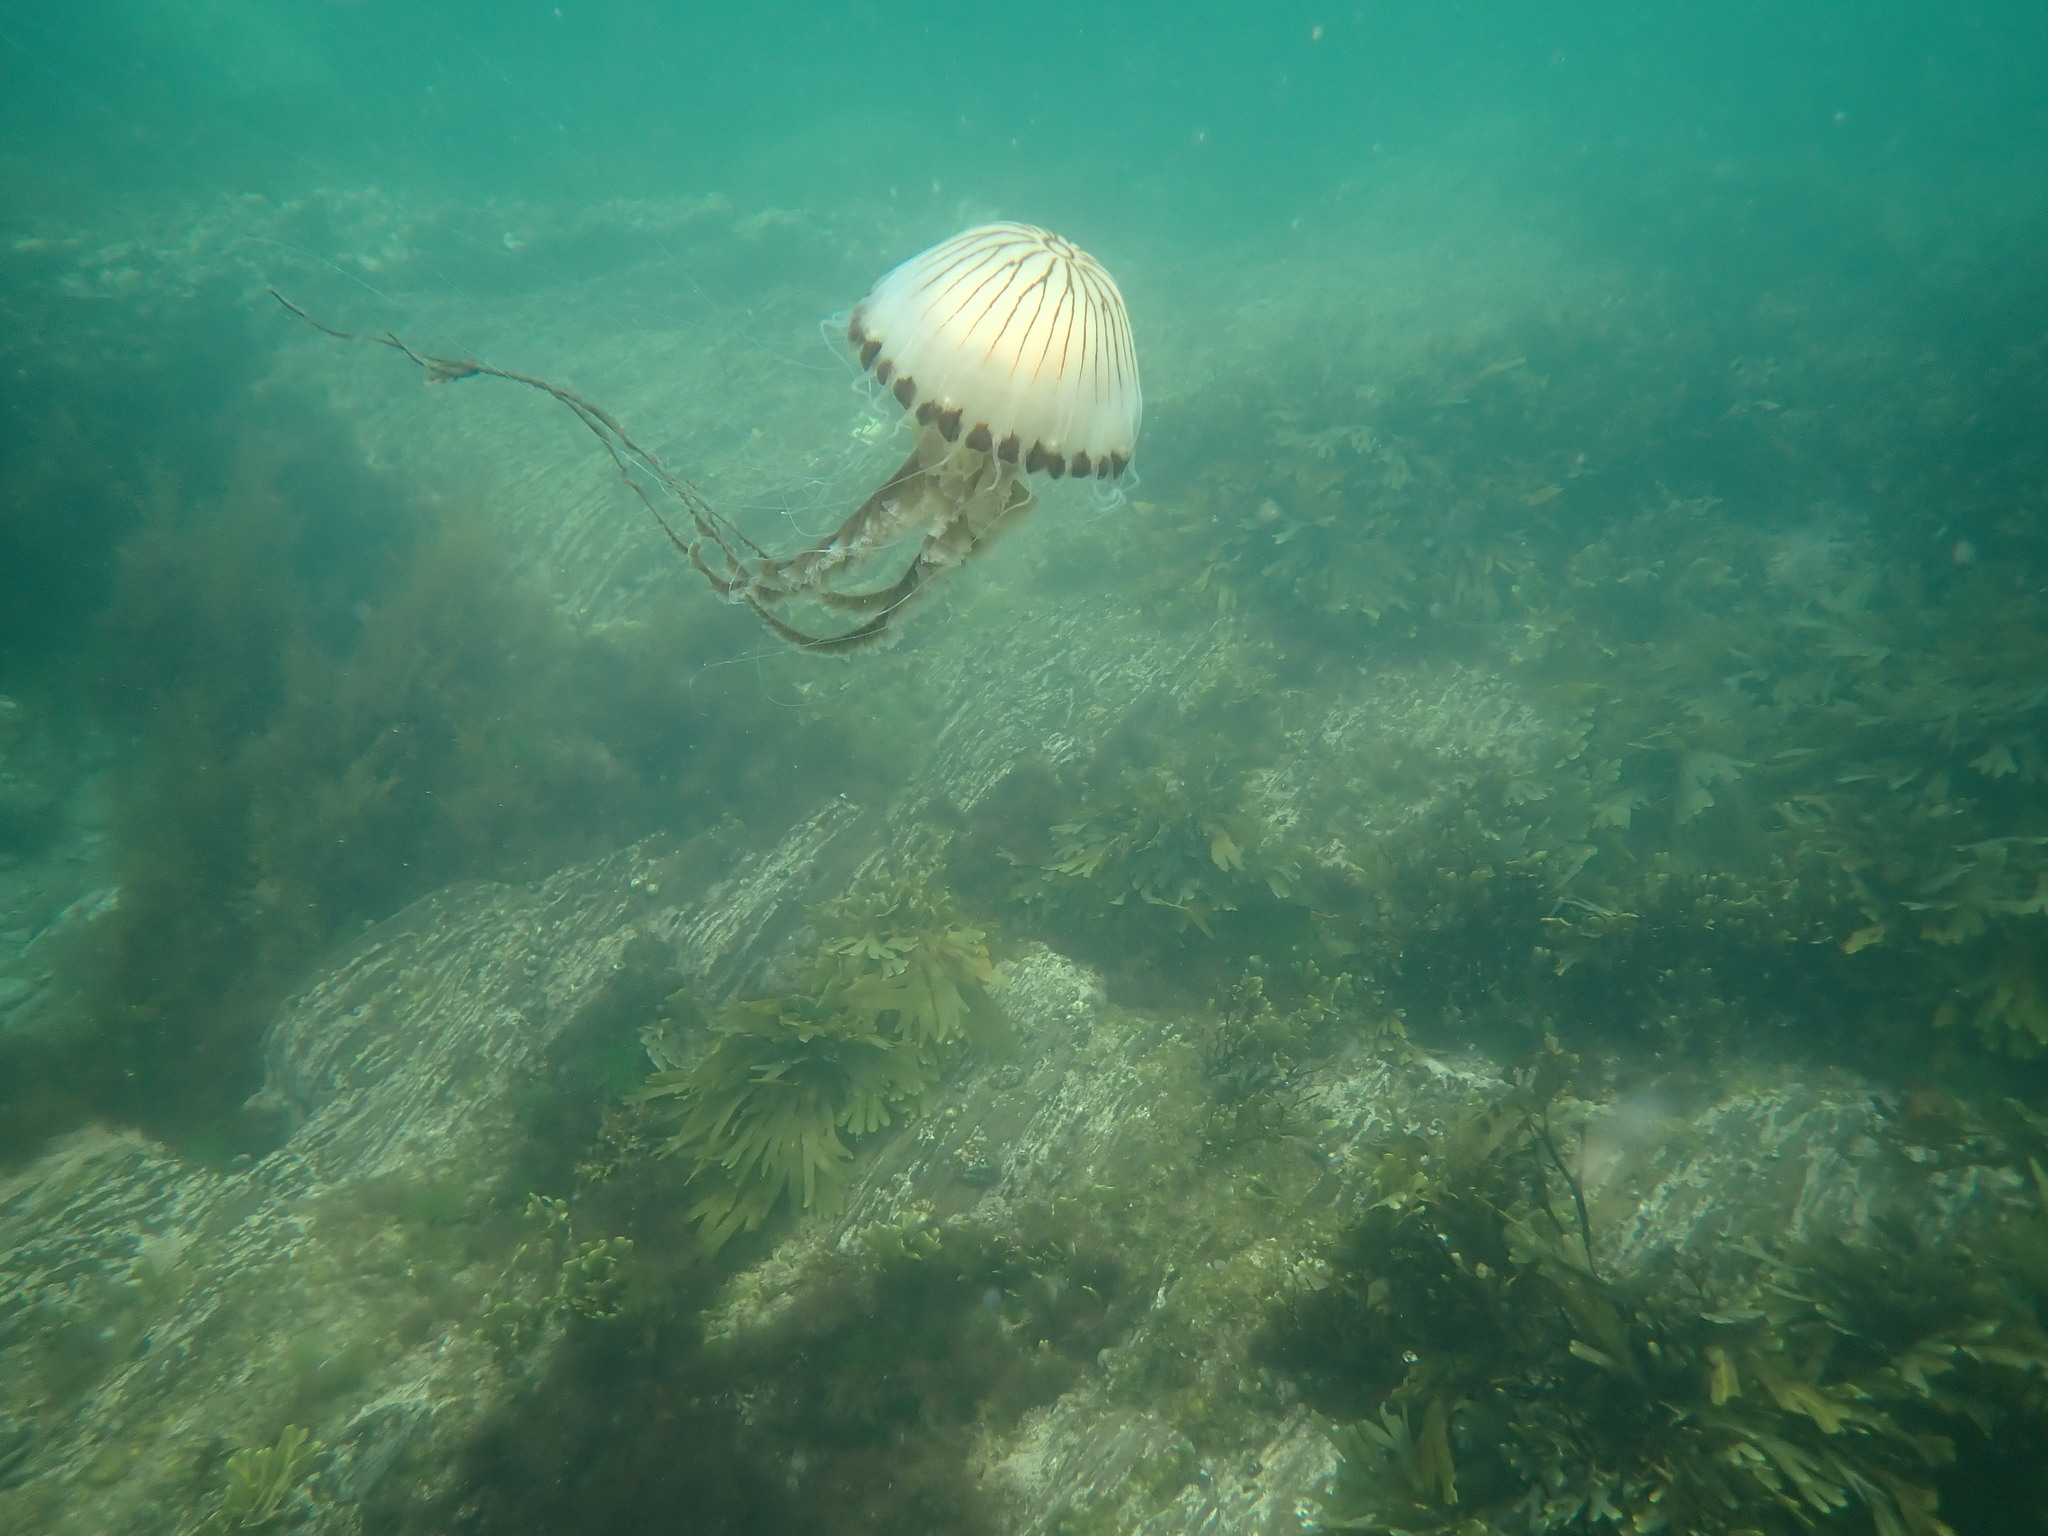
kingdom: Animalia
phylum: Cnidaria
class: Scyphozoa
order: Semaeostomeae
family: Pelagiidae
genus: Chrysaora
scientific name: Chrysaora hysoscella
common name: Compass jellyfish
